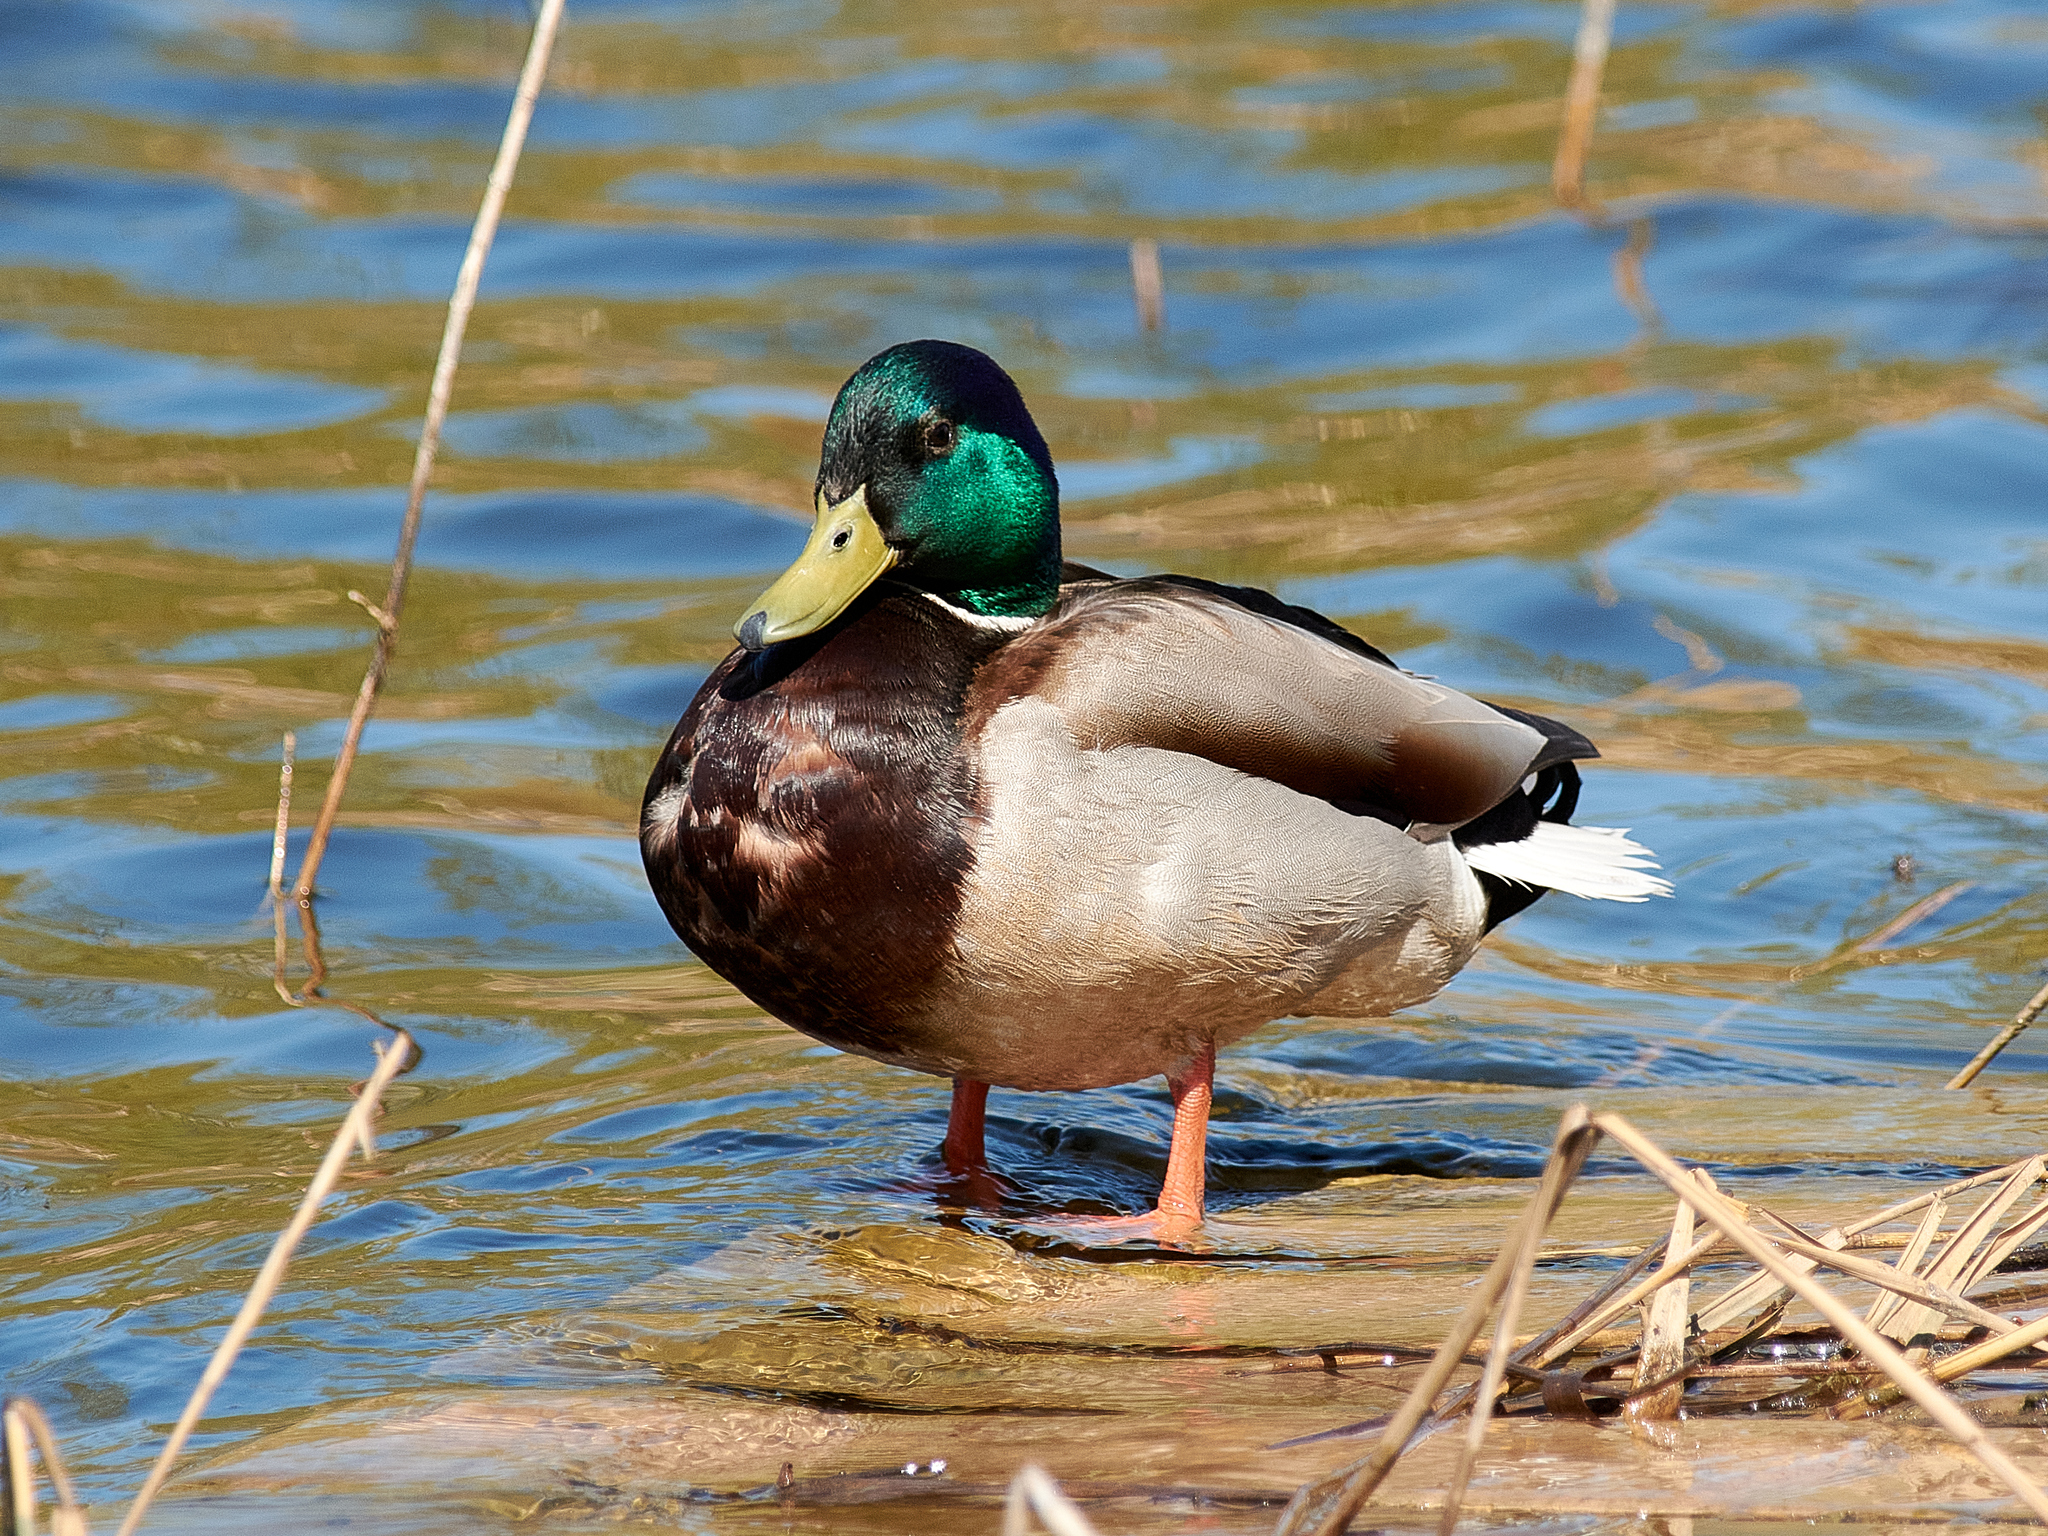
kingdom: Animalia
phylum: Chordata
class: Aves
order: Anseriformes
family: Anatidae
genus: Anas
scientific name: Anas platyrhynchos
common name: Mallard
